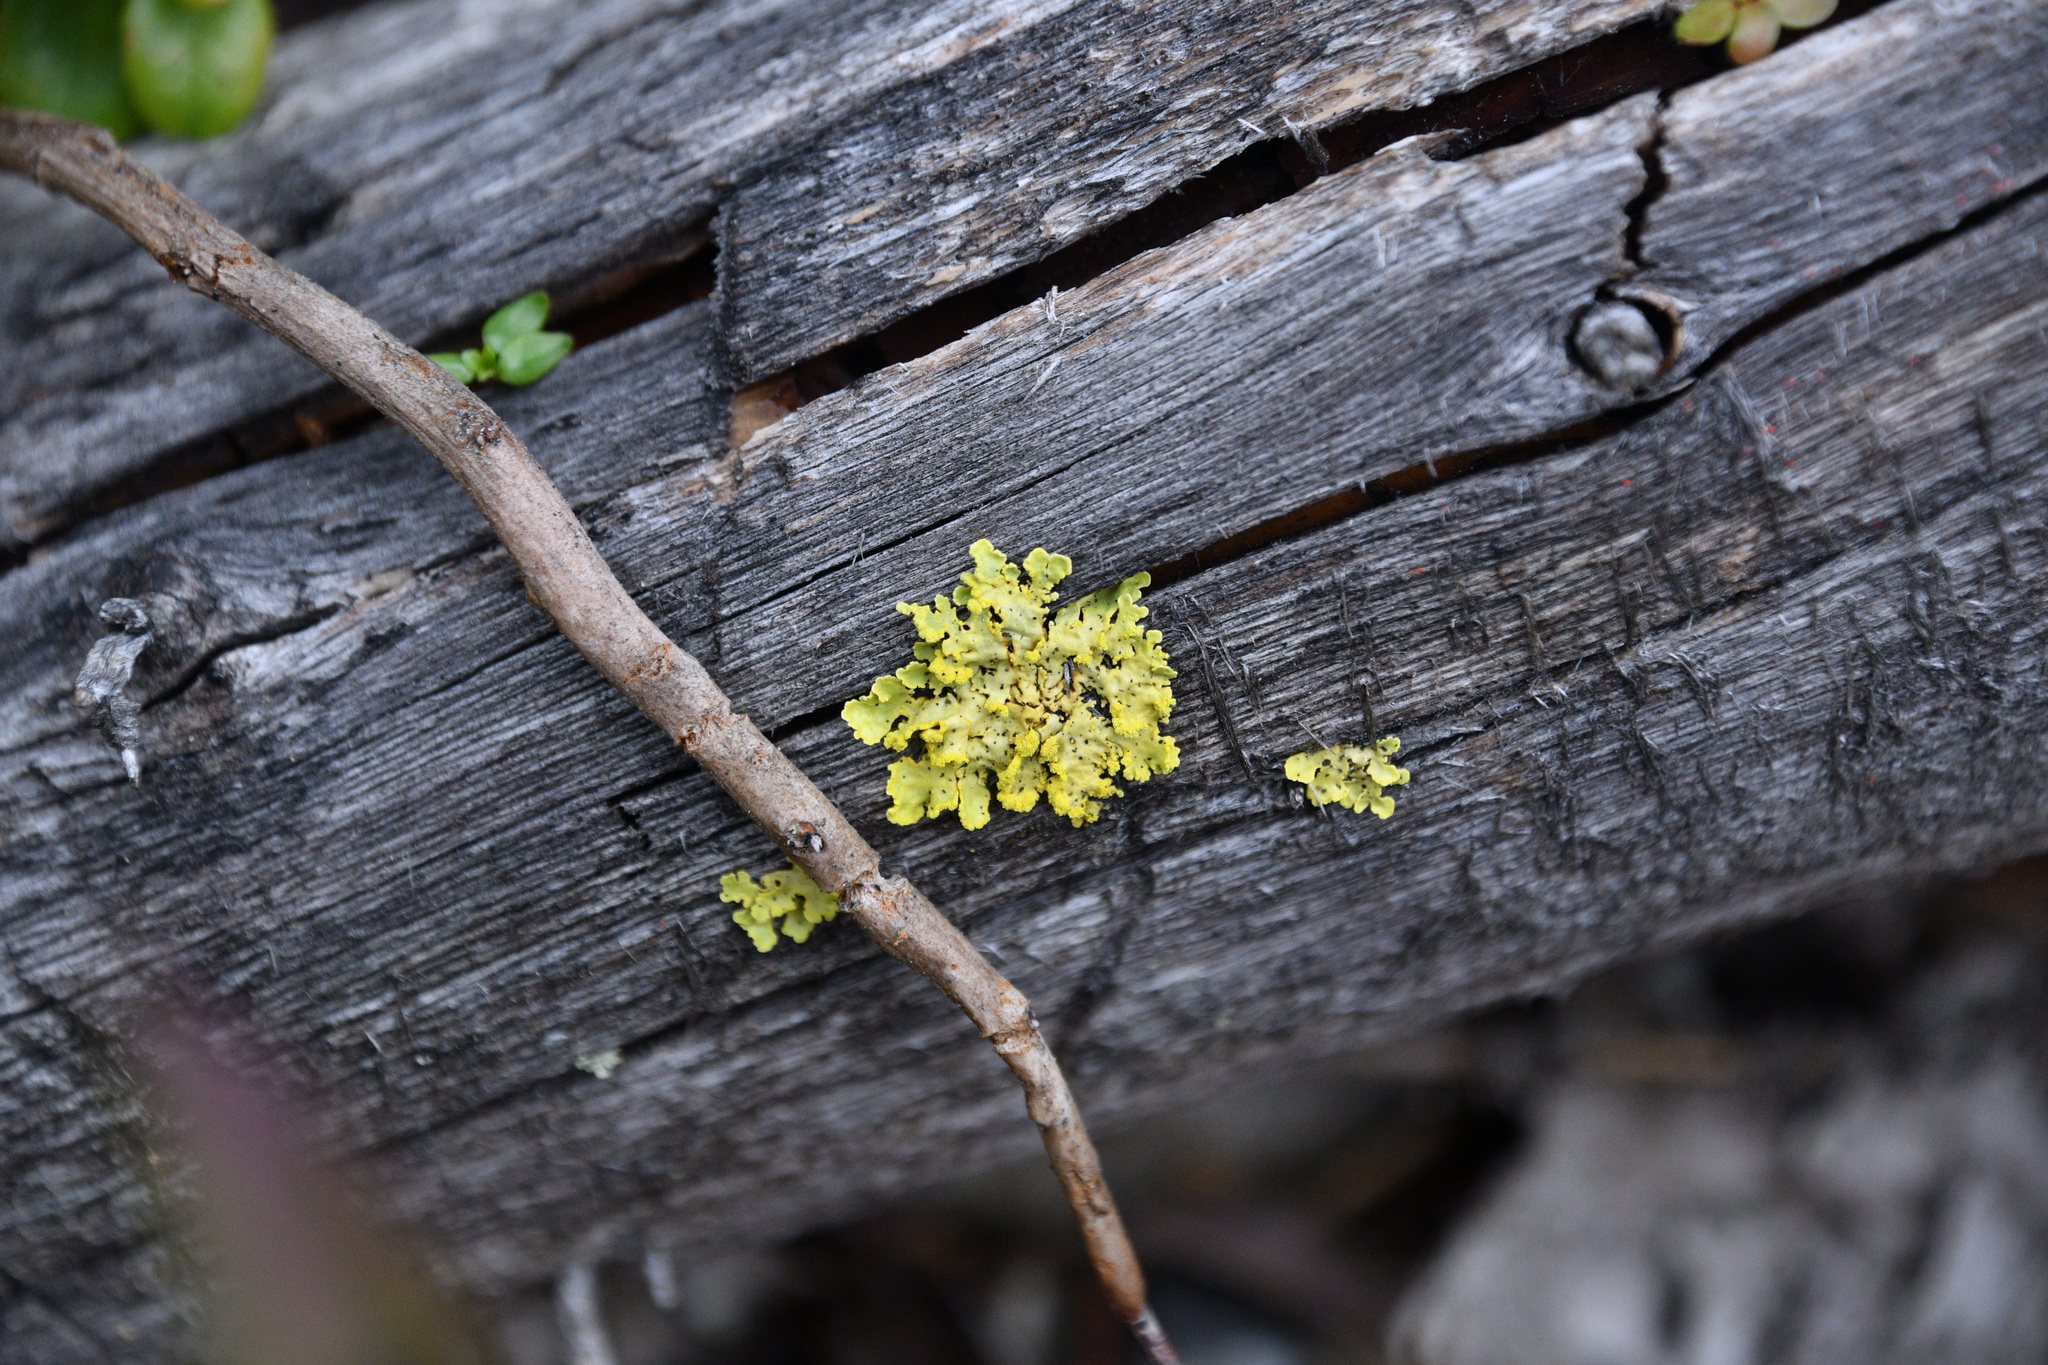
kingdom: Fungi
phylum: Ascomycota
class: Lecanoromycetes
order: Lecanorales
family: Parmeliaceae
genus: Vulpicida
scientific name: Vulpicida pinastri
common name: Powdered sunshine lichen
